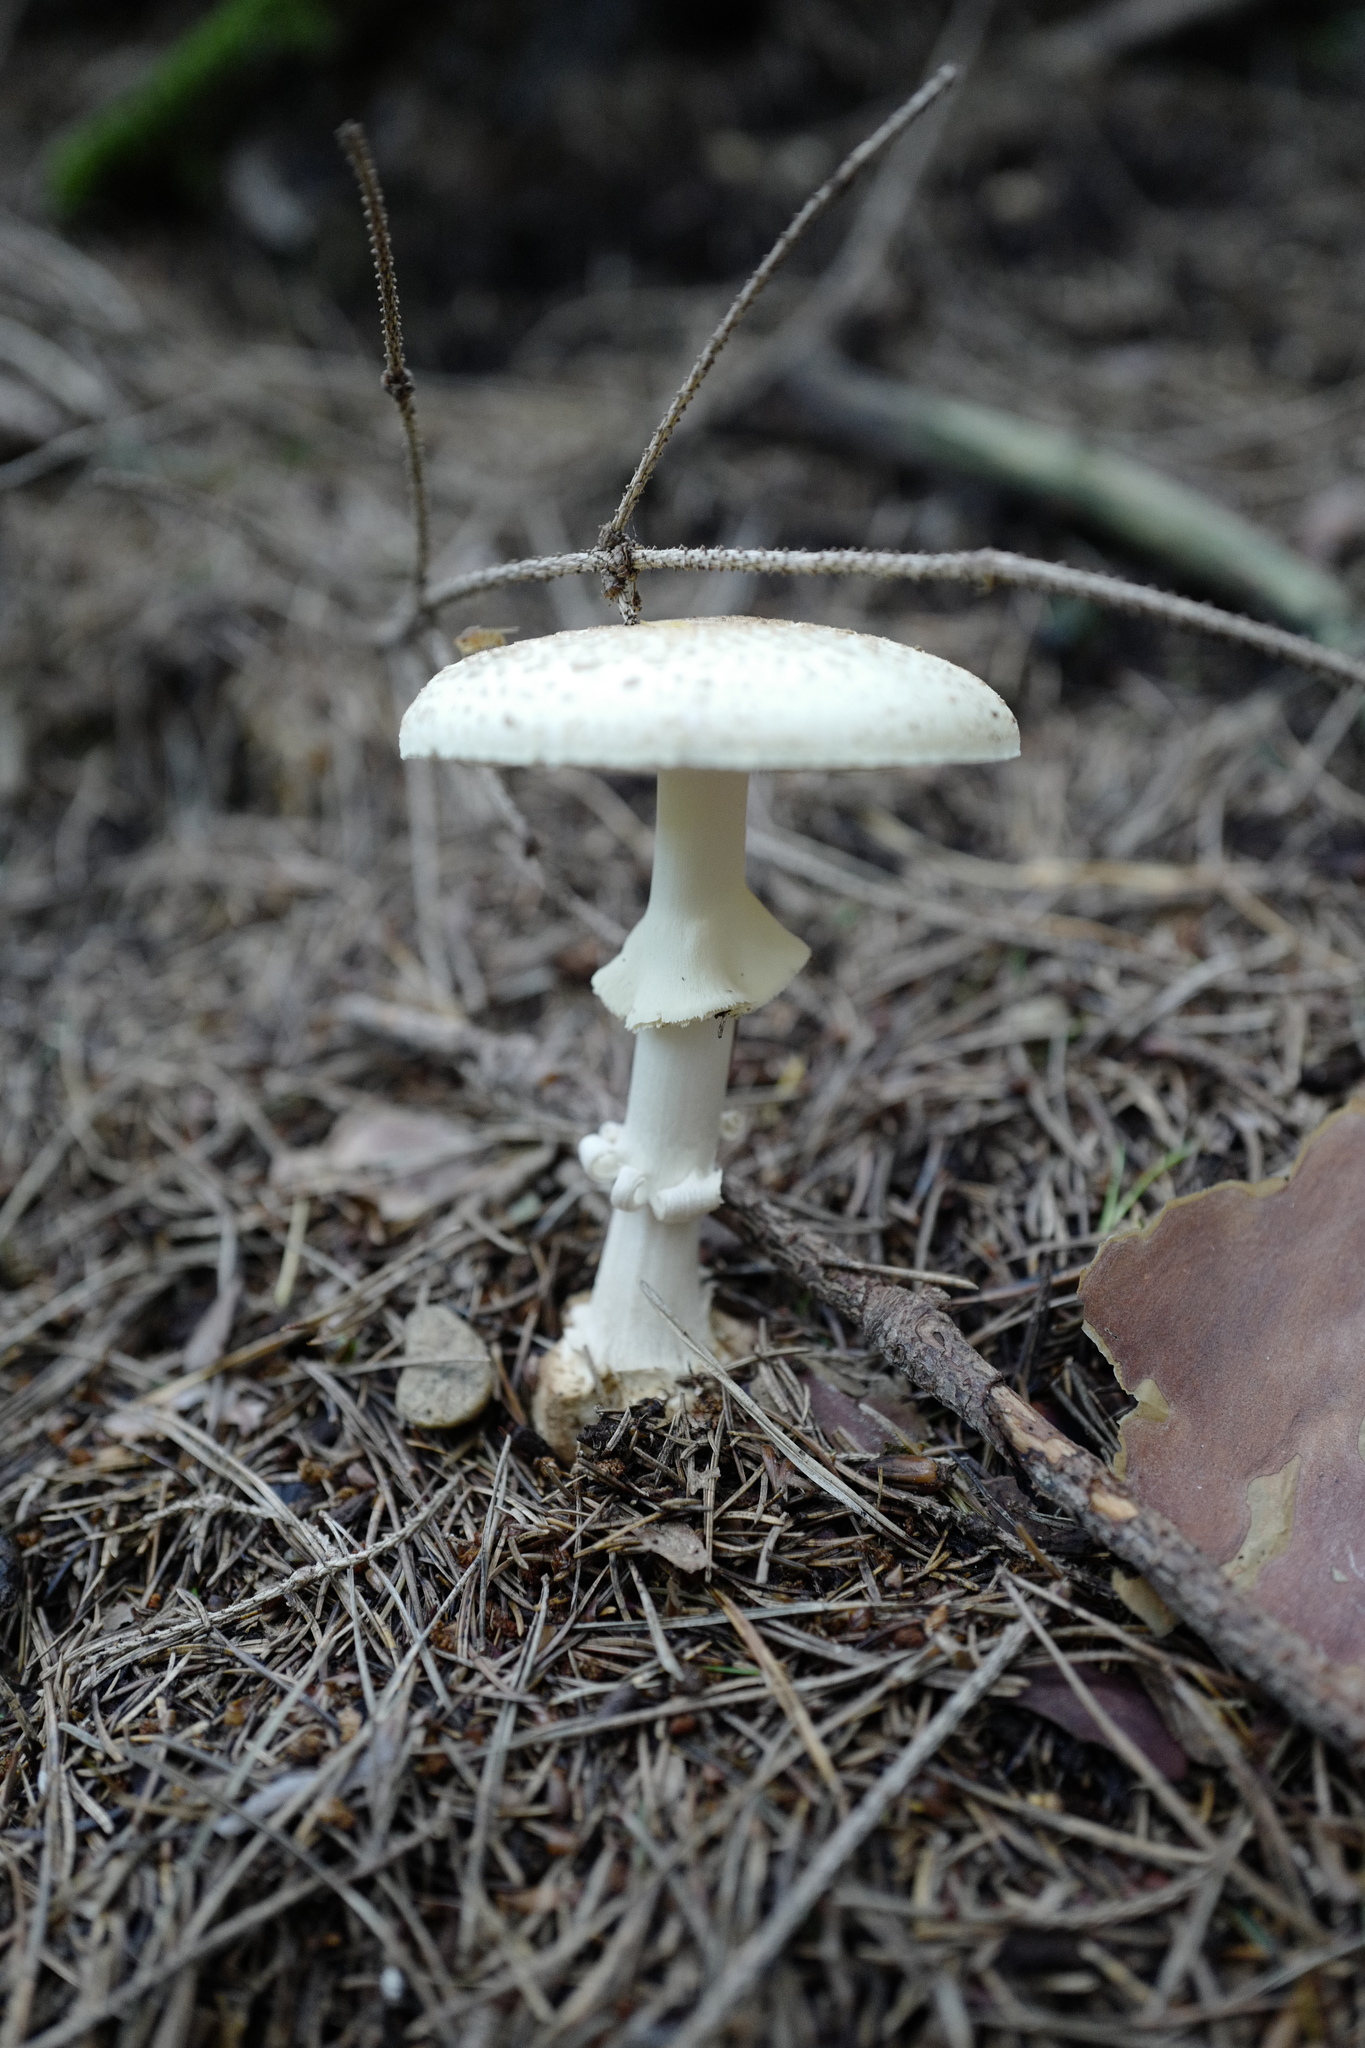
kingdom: Fungi
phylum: Basidiomycota
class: Agaricomycetes
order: Agaricales
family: Amanitaceae
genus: Amanita
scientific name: Amanita citrina
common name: False death-cap
